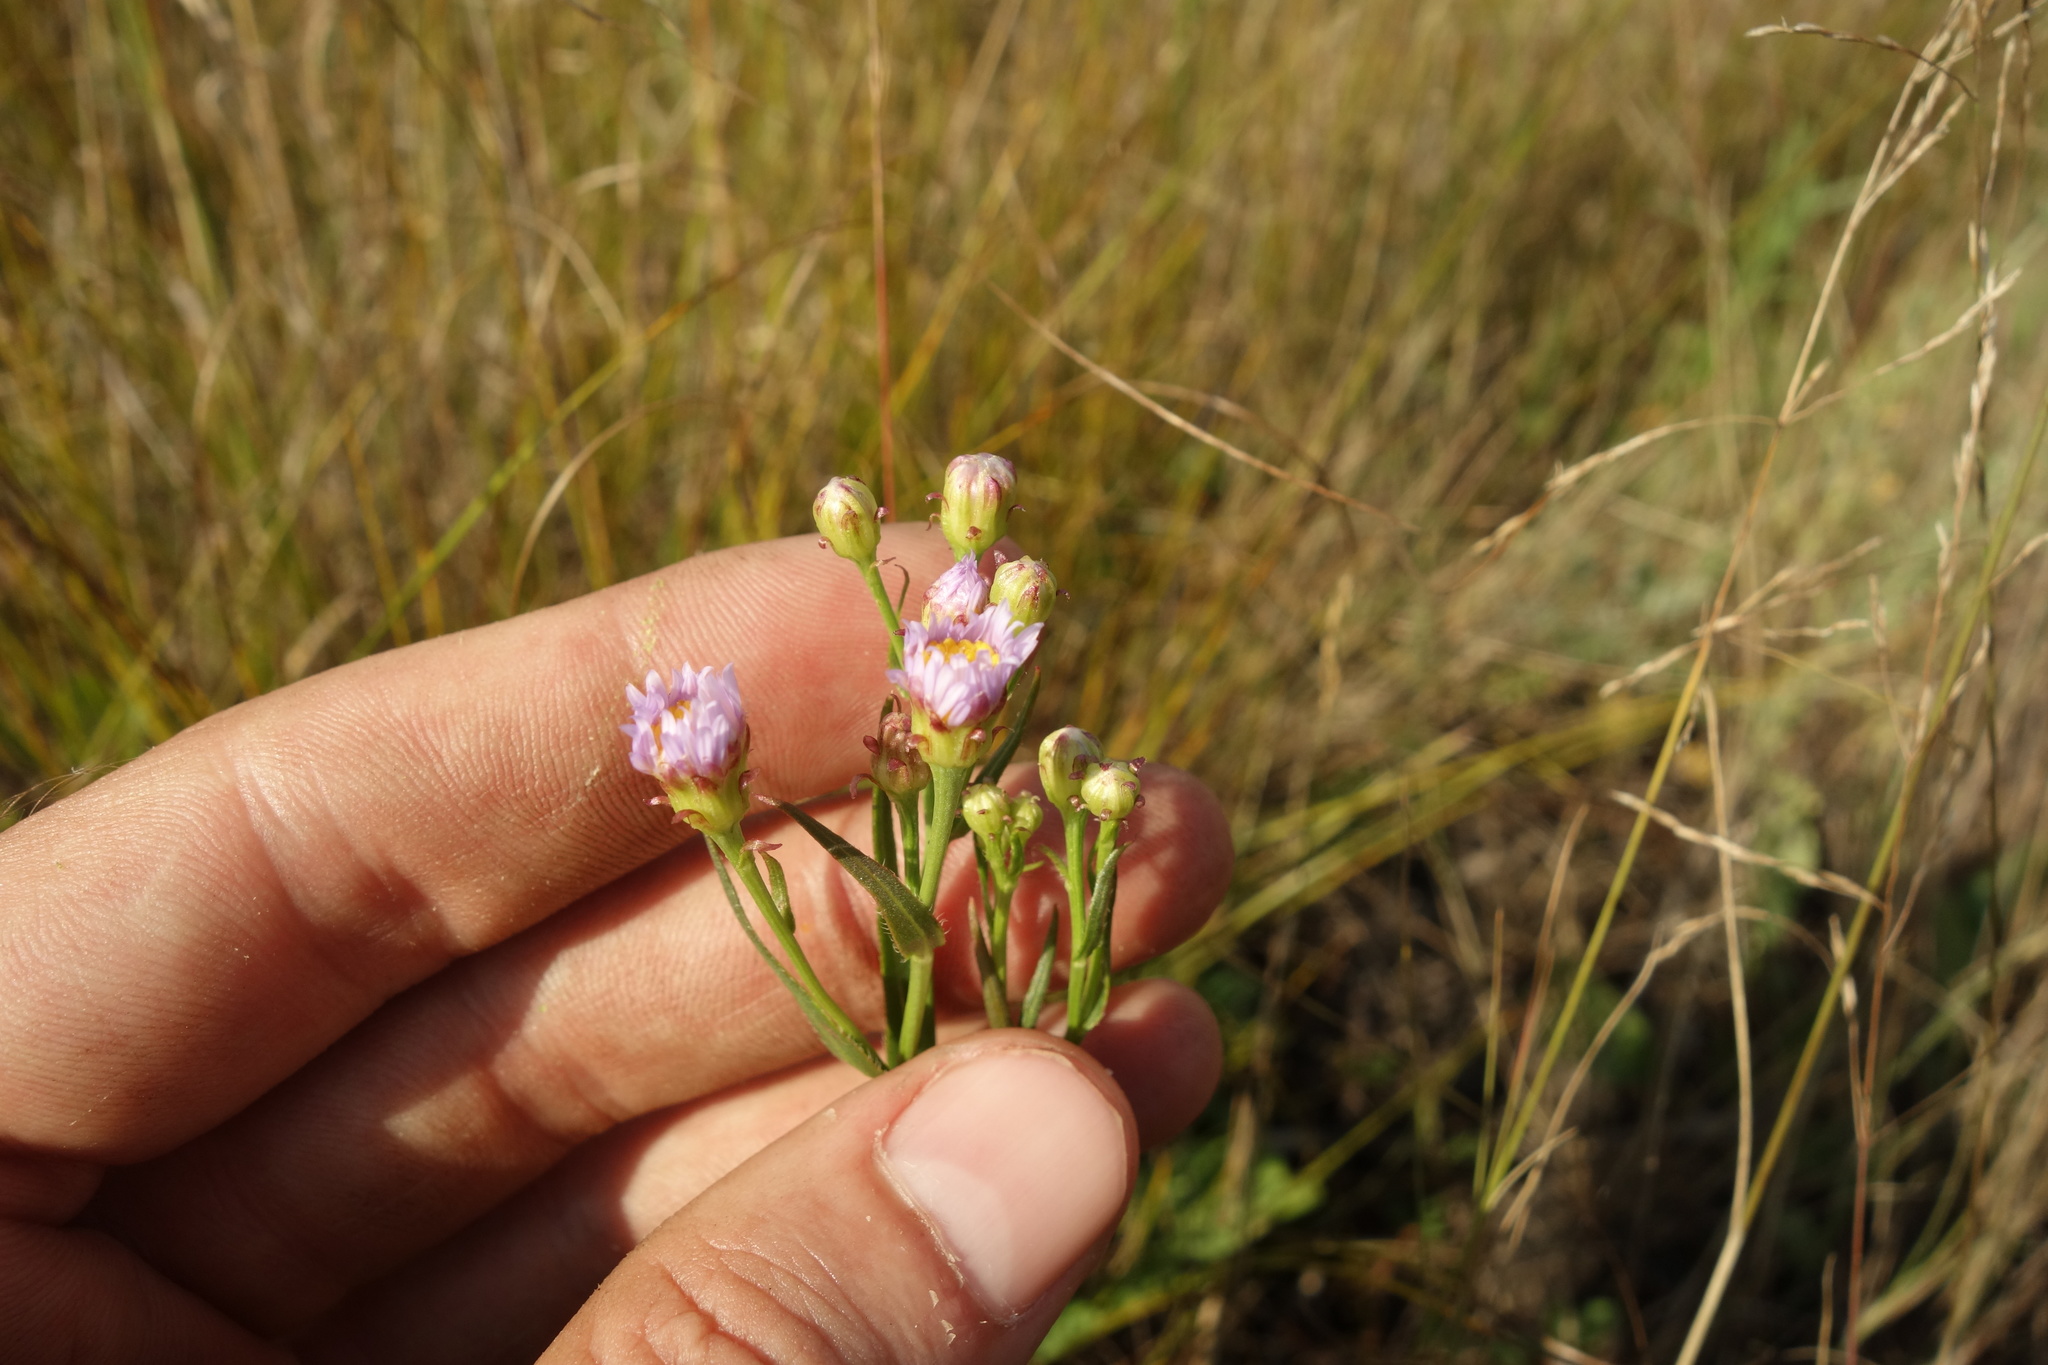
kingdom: Plantae
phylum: Tracheophyta
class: Magnoliopsida
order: Asterales
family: Asteraceae
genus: Tripolium
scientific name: Tripolium pannonicum
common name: Sea aster
